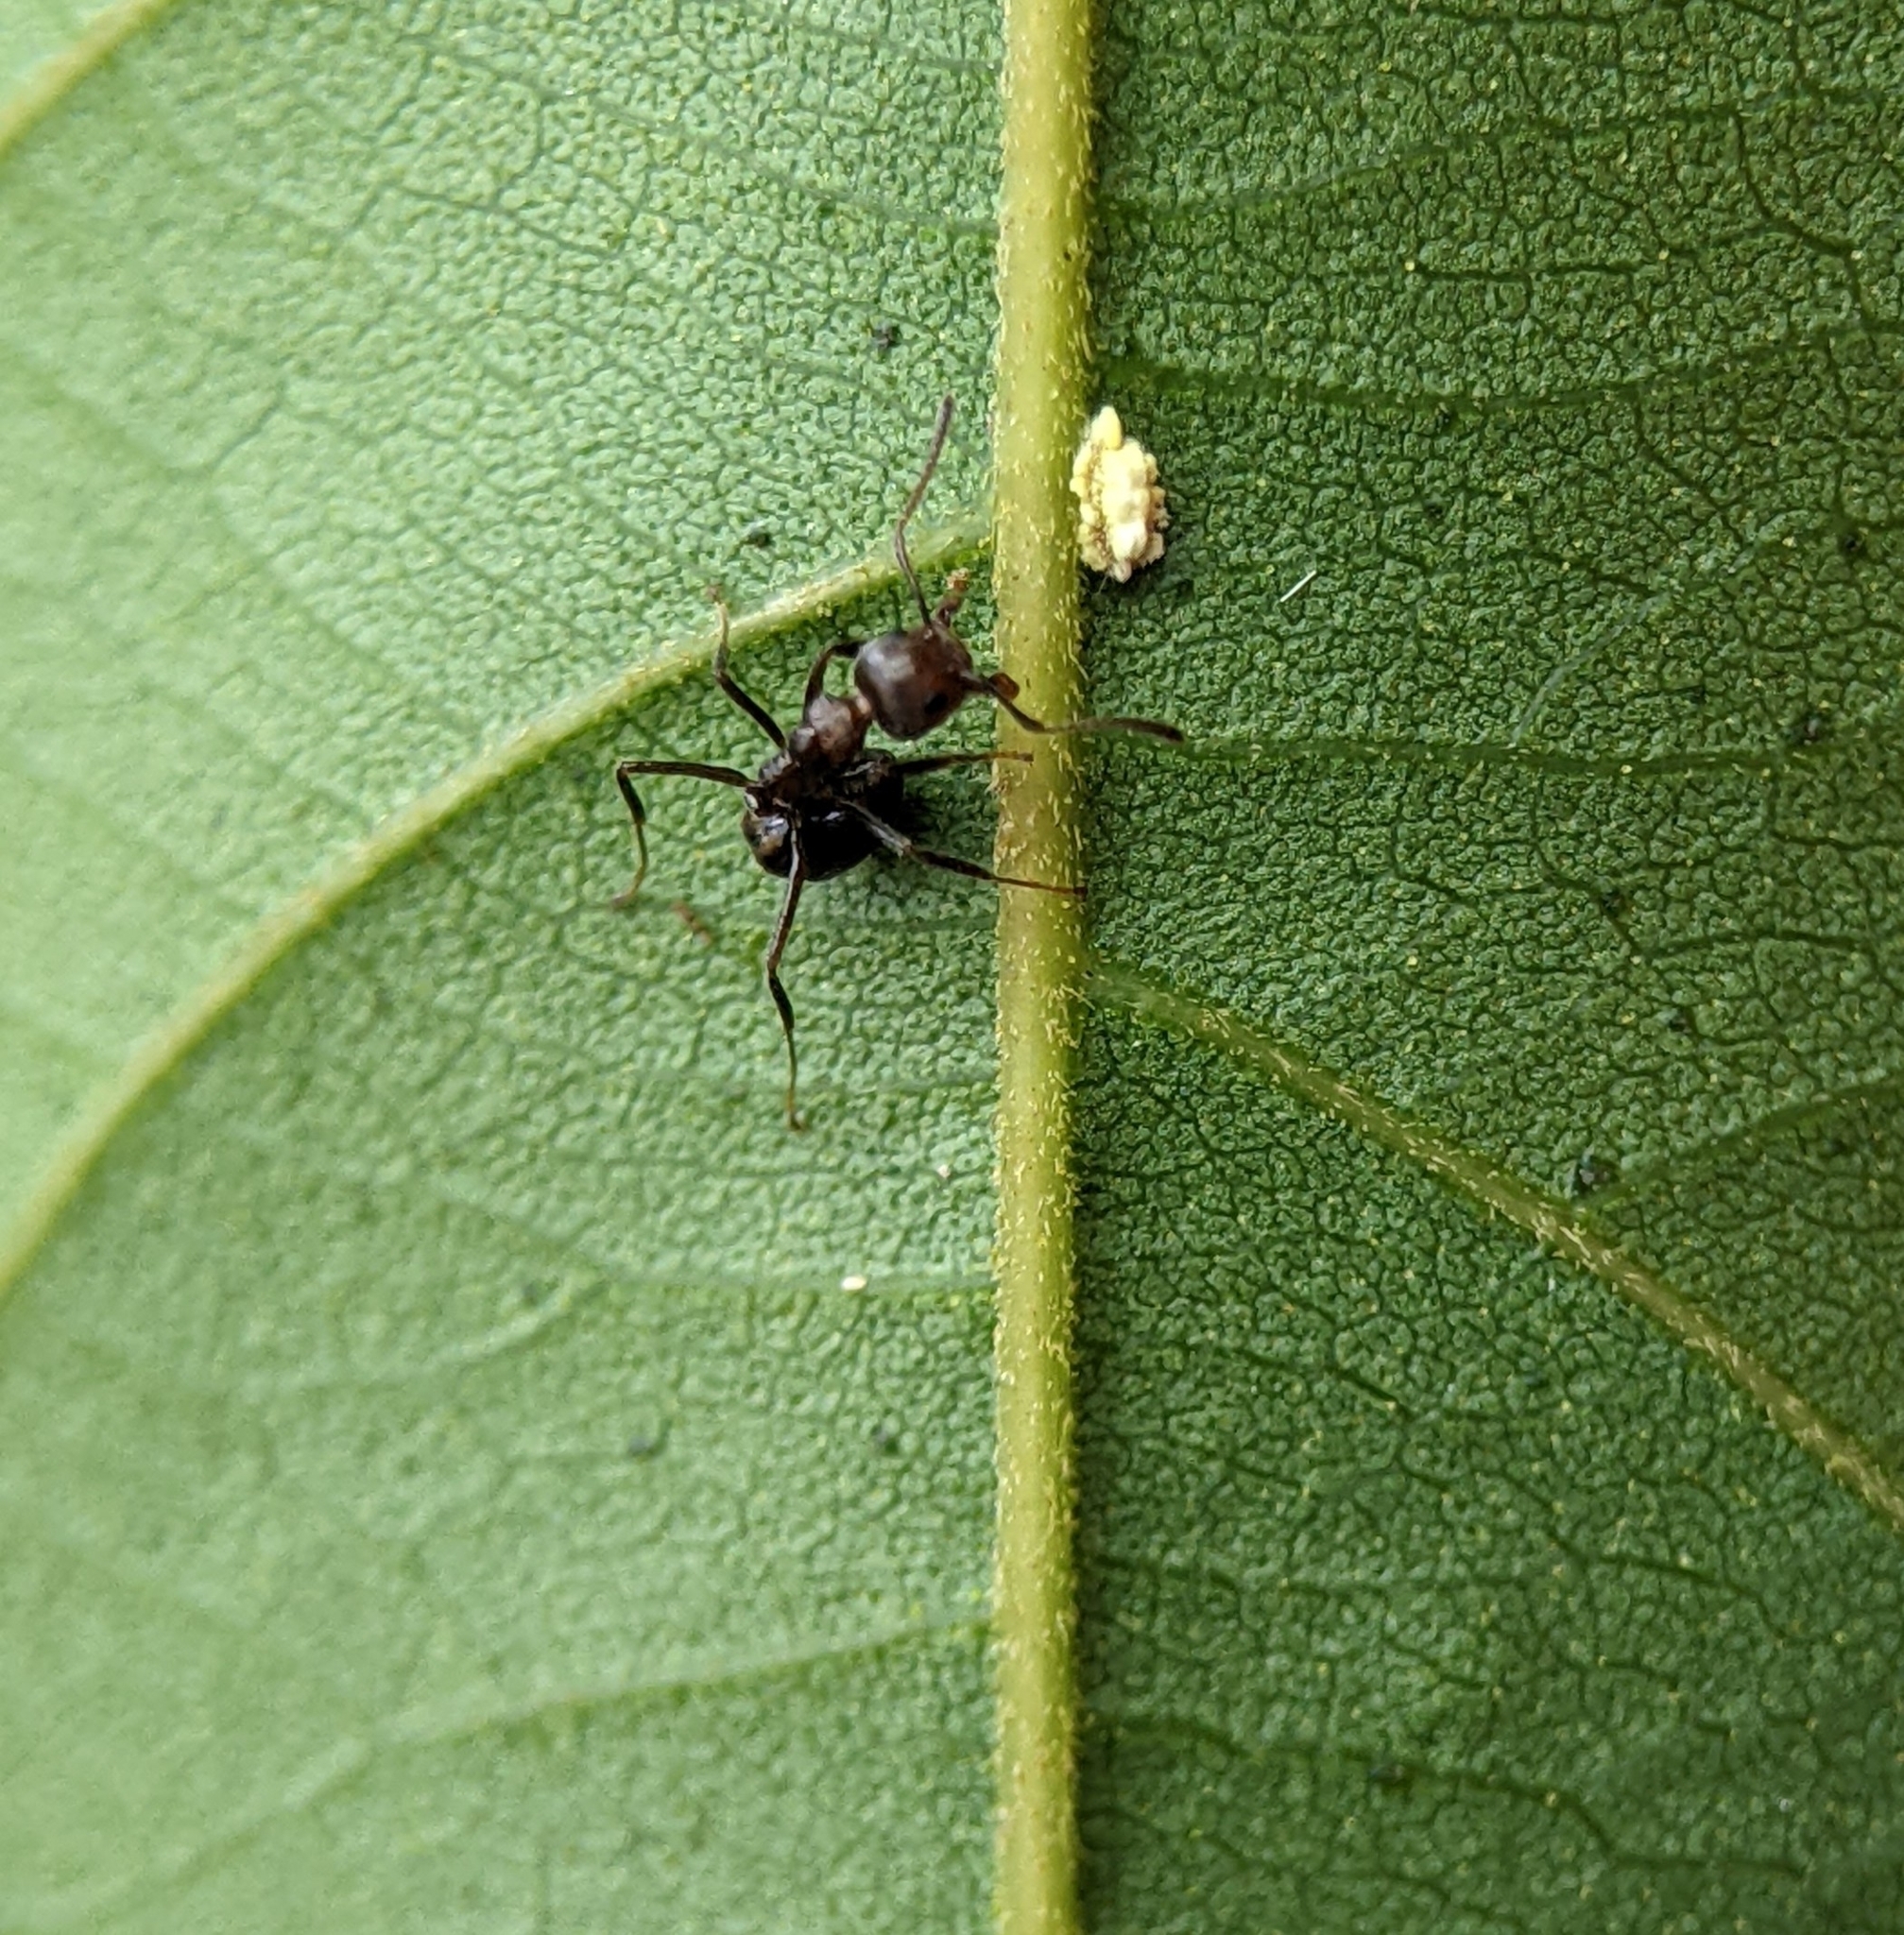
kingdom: Animalia
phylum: Arthropoda
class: Insecta
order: Hymenoptera
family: Formicidae
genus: Dolichoderus
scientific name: Dolichoderus thoracicus
